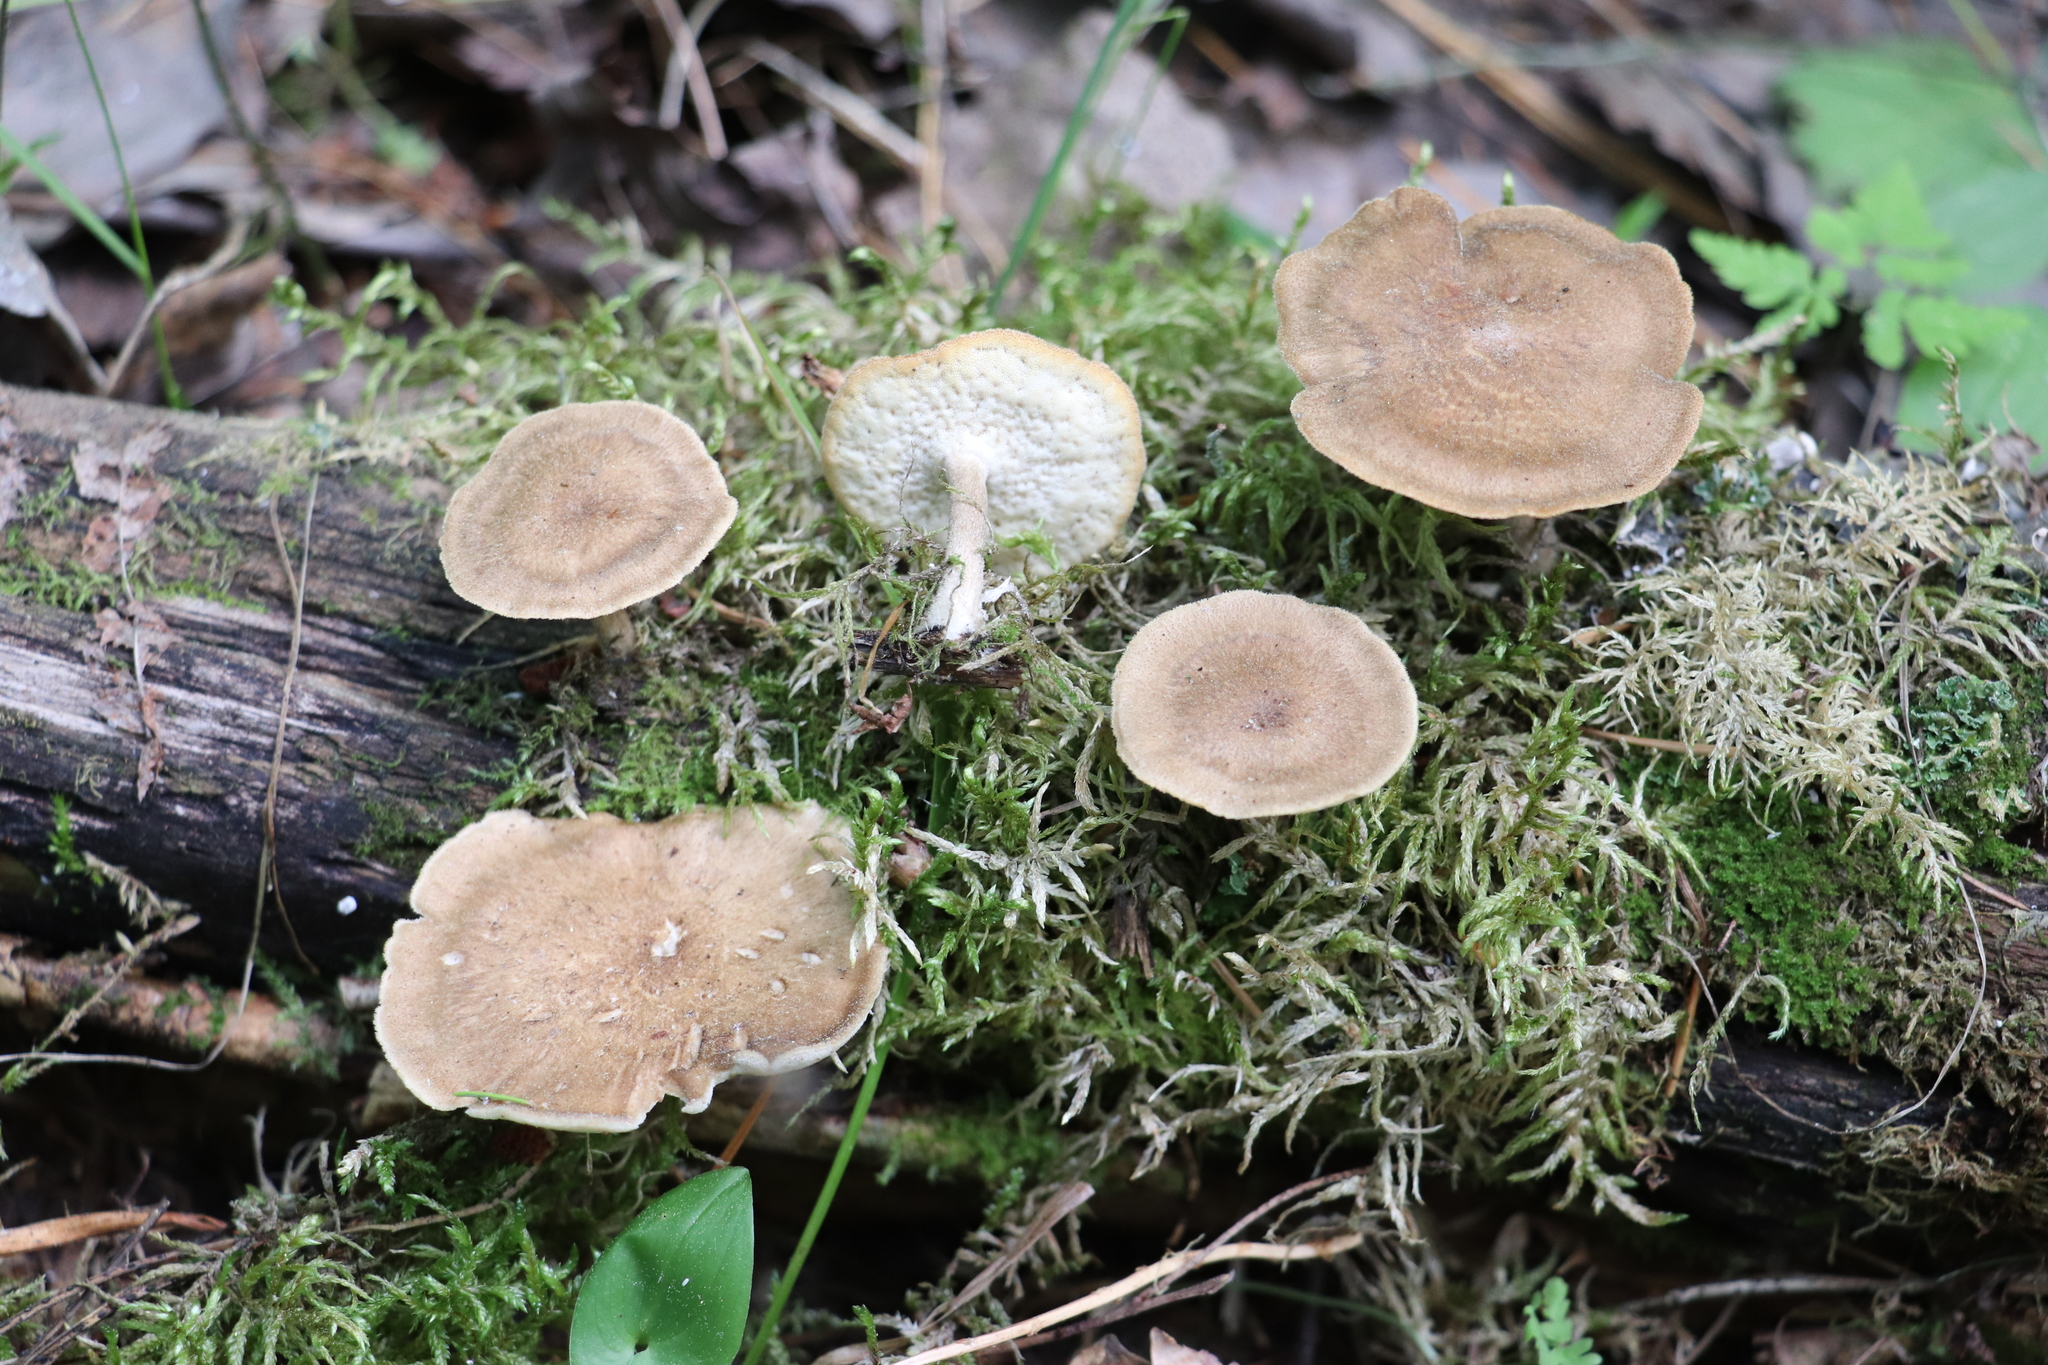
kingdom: Fungi
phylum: Basidiomycota
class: Agaricomycetes
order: Polyporales
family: Polyporaceae
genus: Lentinus
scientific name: Lentinus substrictus
